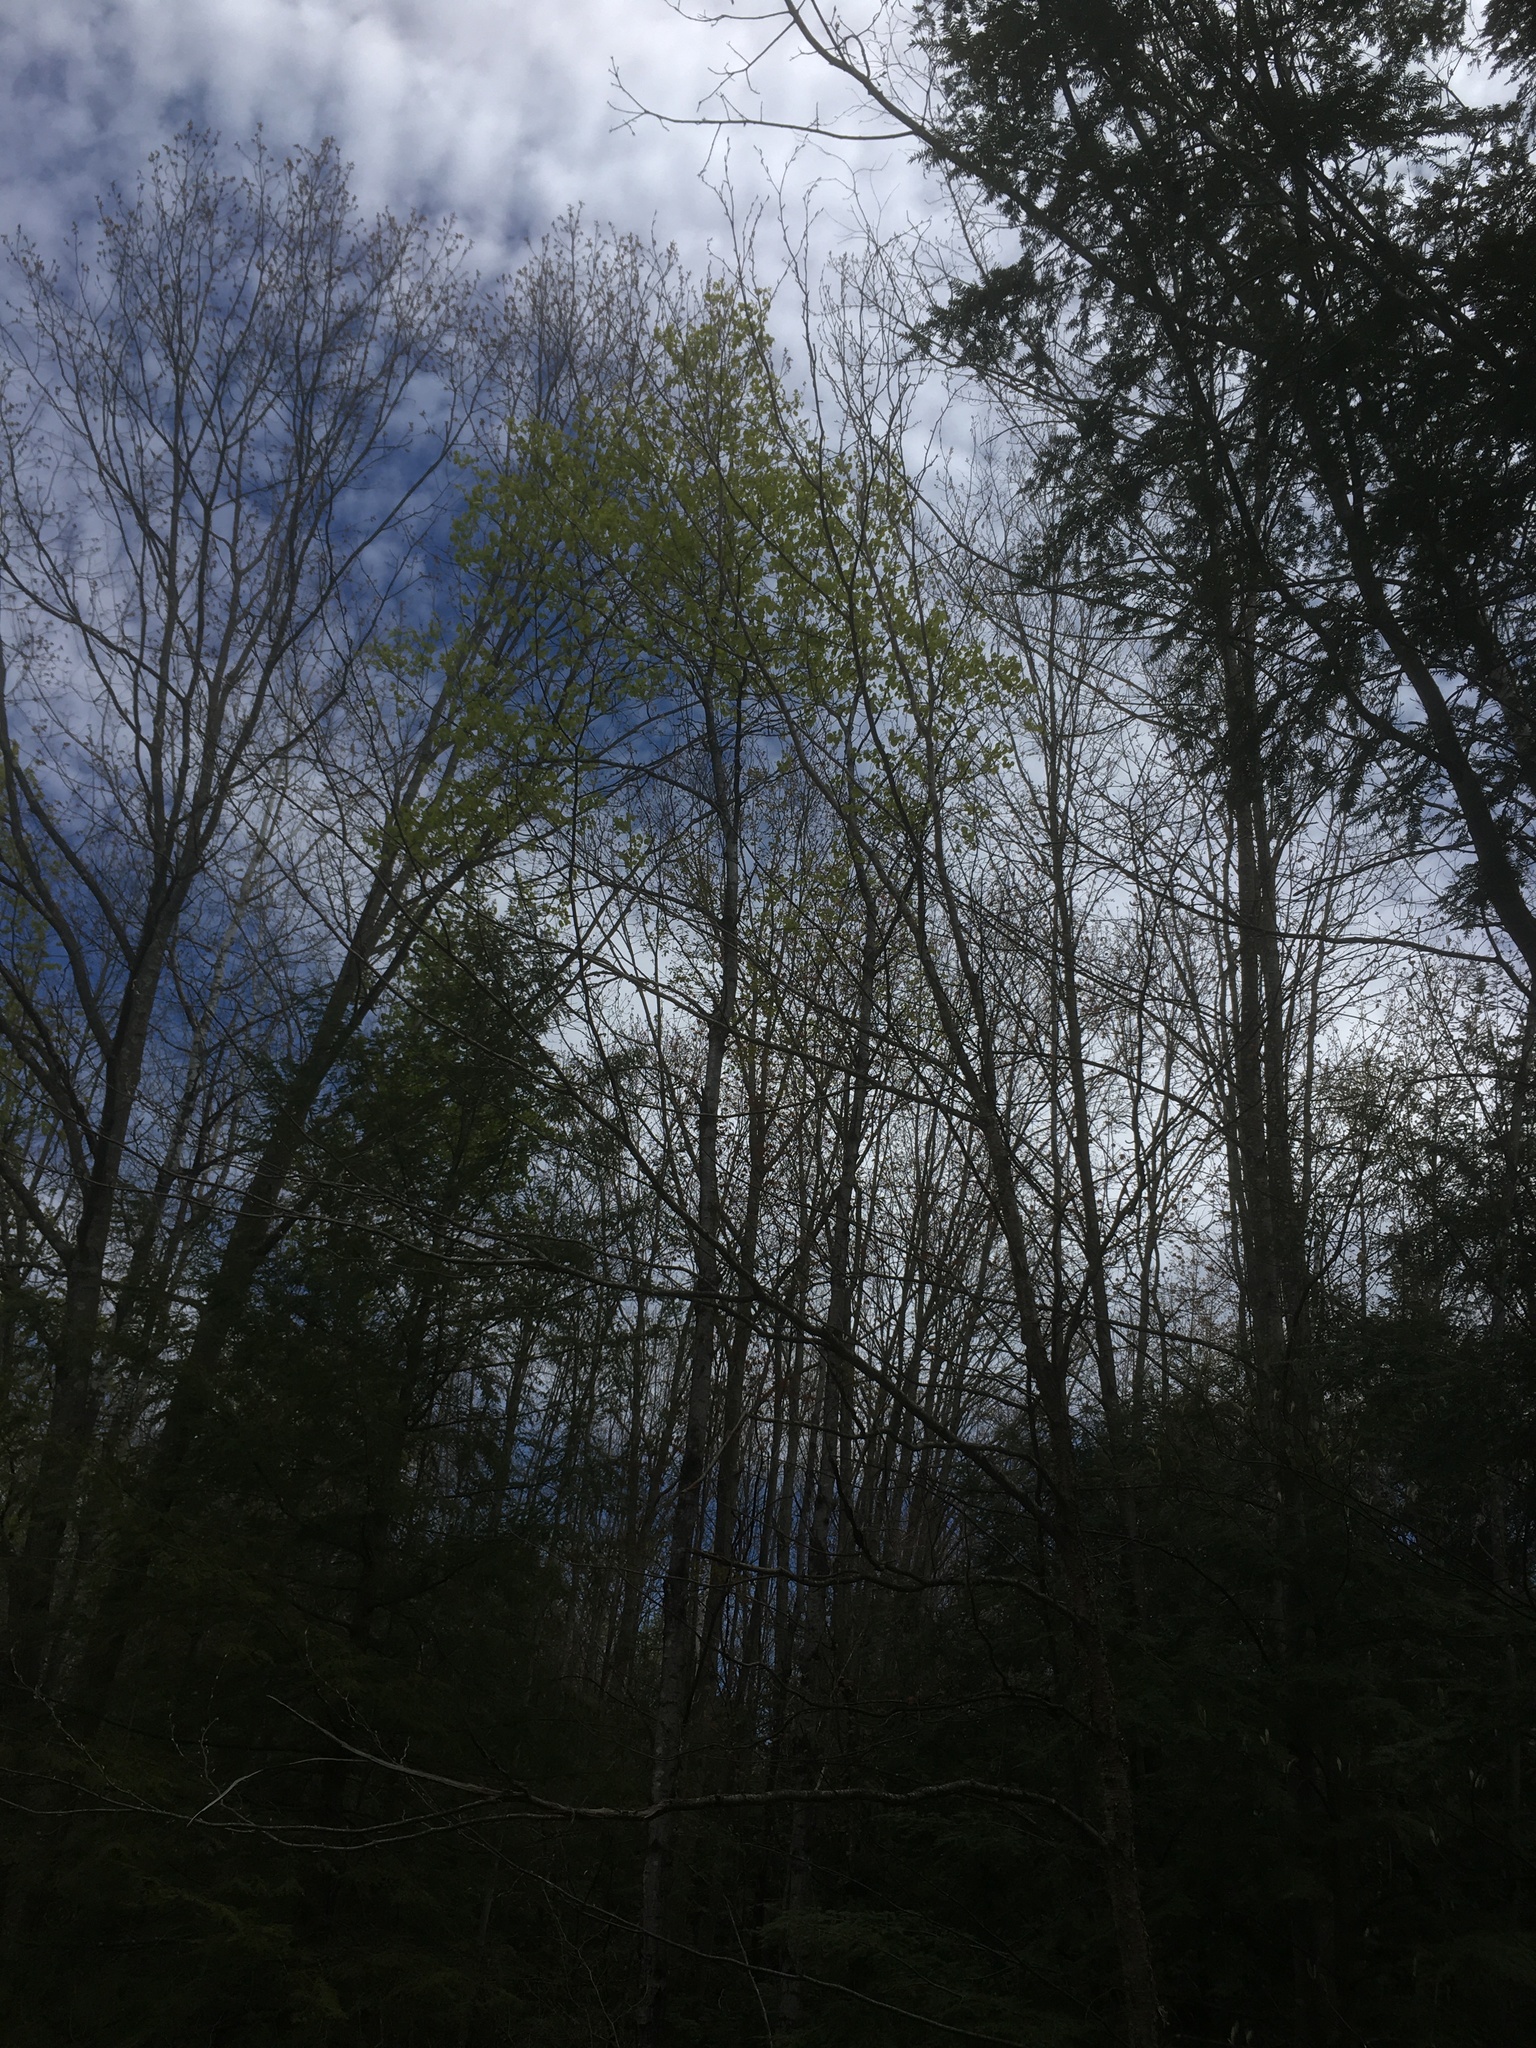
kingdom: Plantae
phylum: Tracheophyta
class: Magnoliopsida
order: Malpighiales
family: Salicaceae
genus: Populus
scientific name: Populus tremuloides
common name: Quaking aspen
